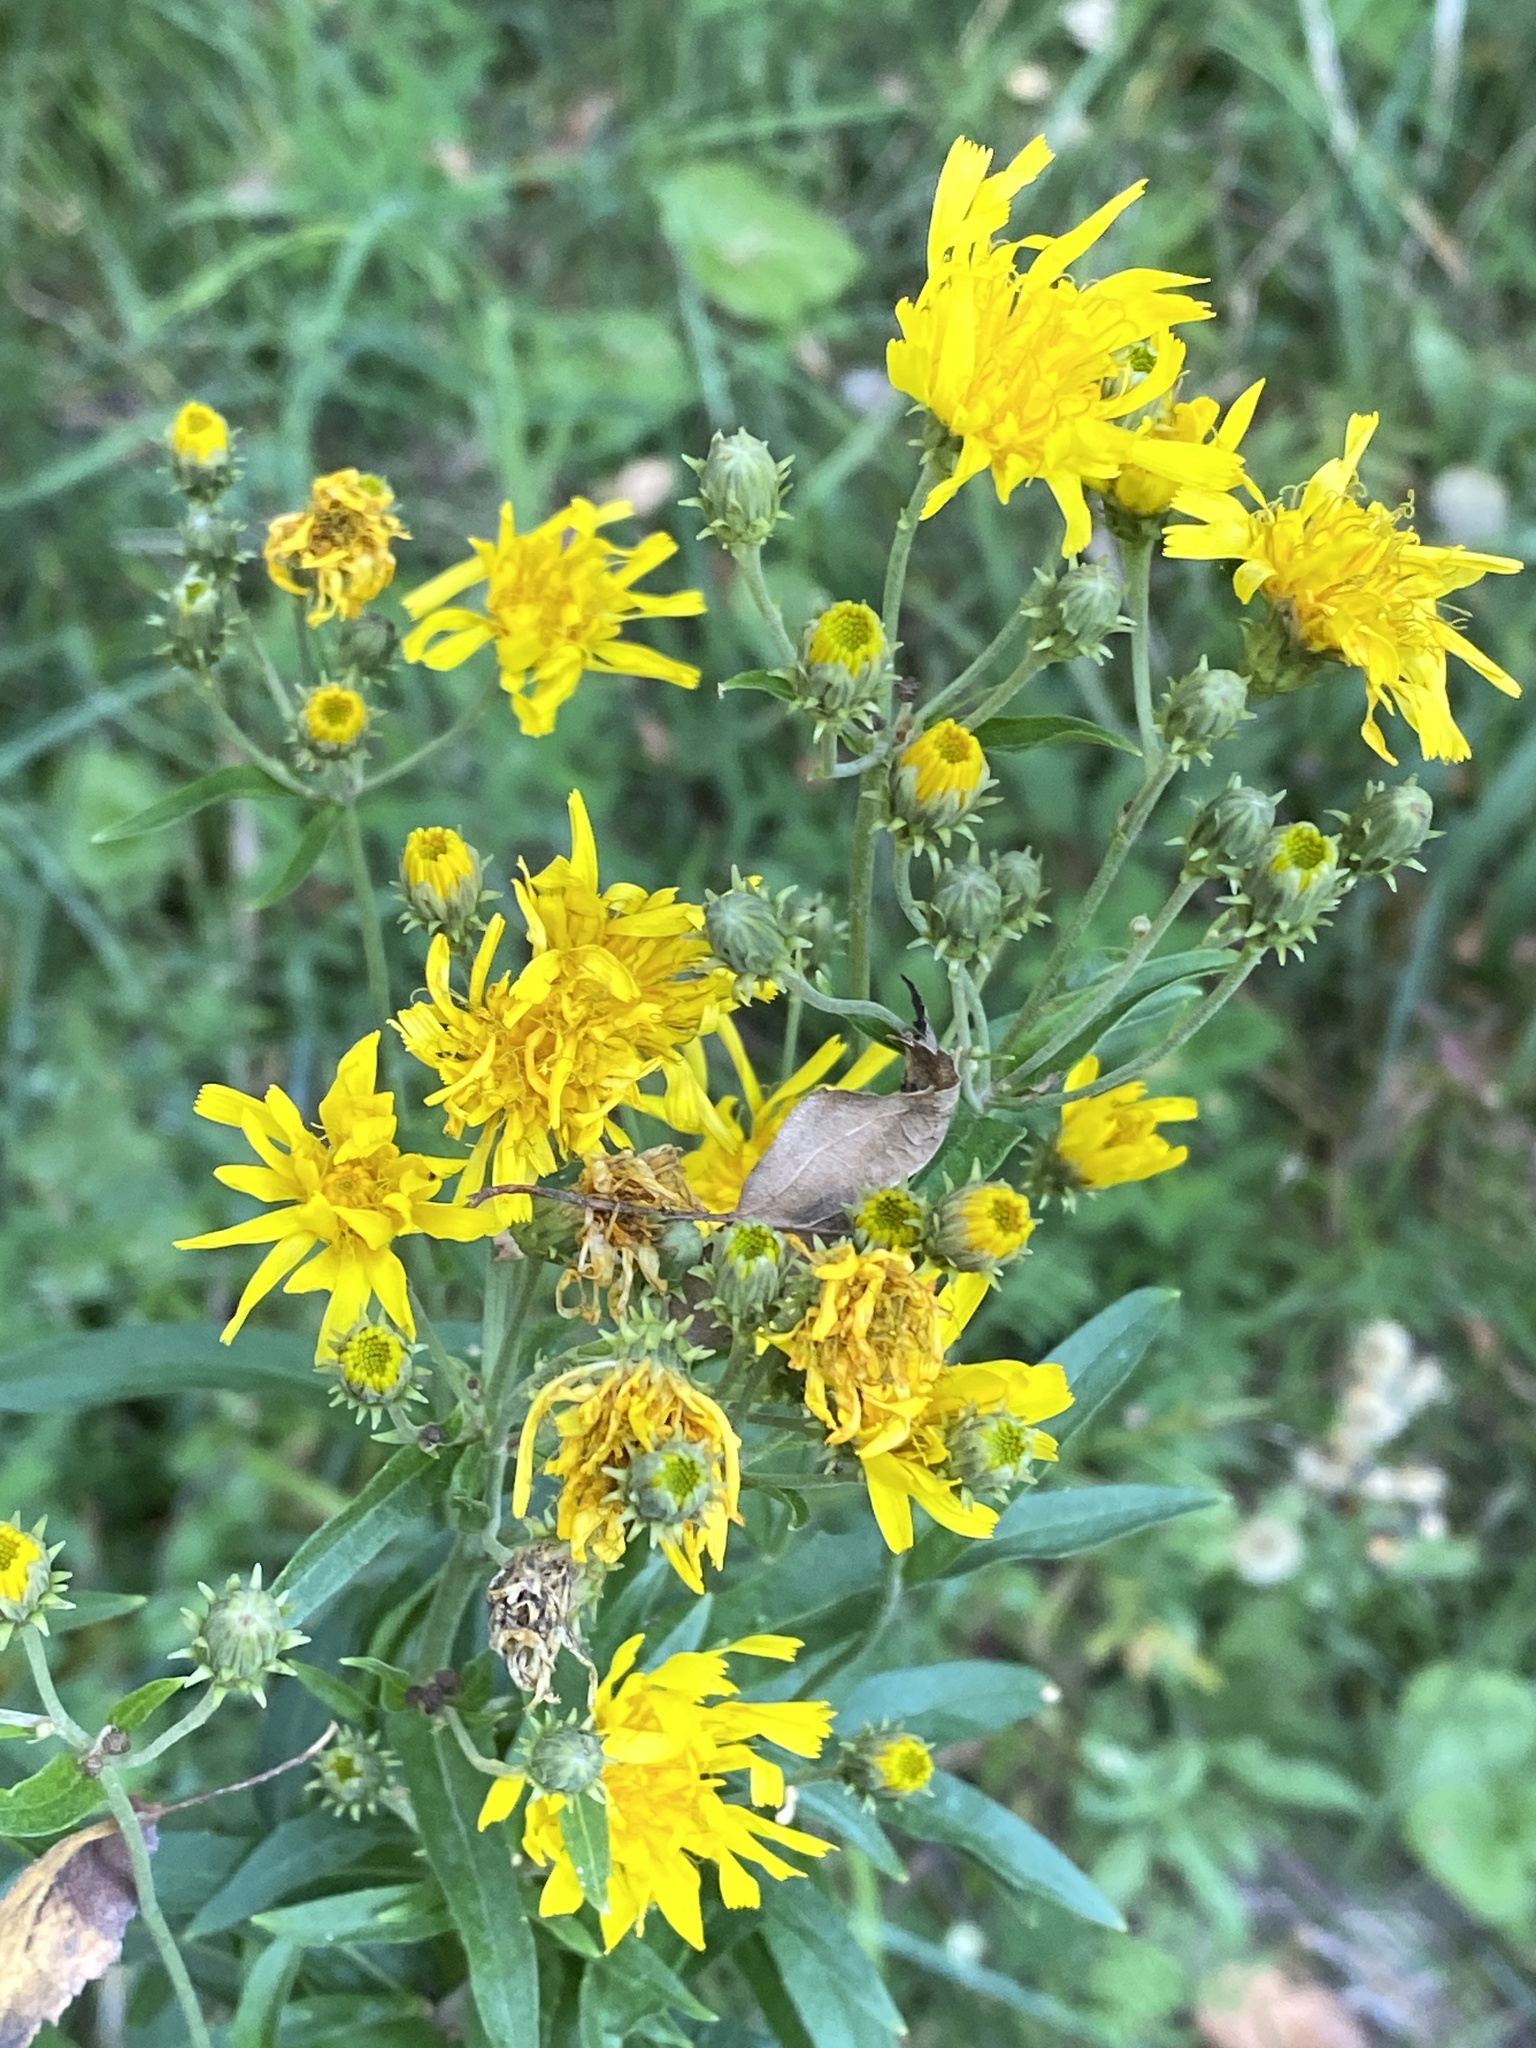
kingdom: Plantae
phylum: Tracheophyta
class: Magnoliopsida
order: Asterales
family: Asteraceae
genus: Hieracium
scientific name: Hieracium umbellatum
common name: Northern hawkweed
